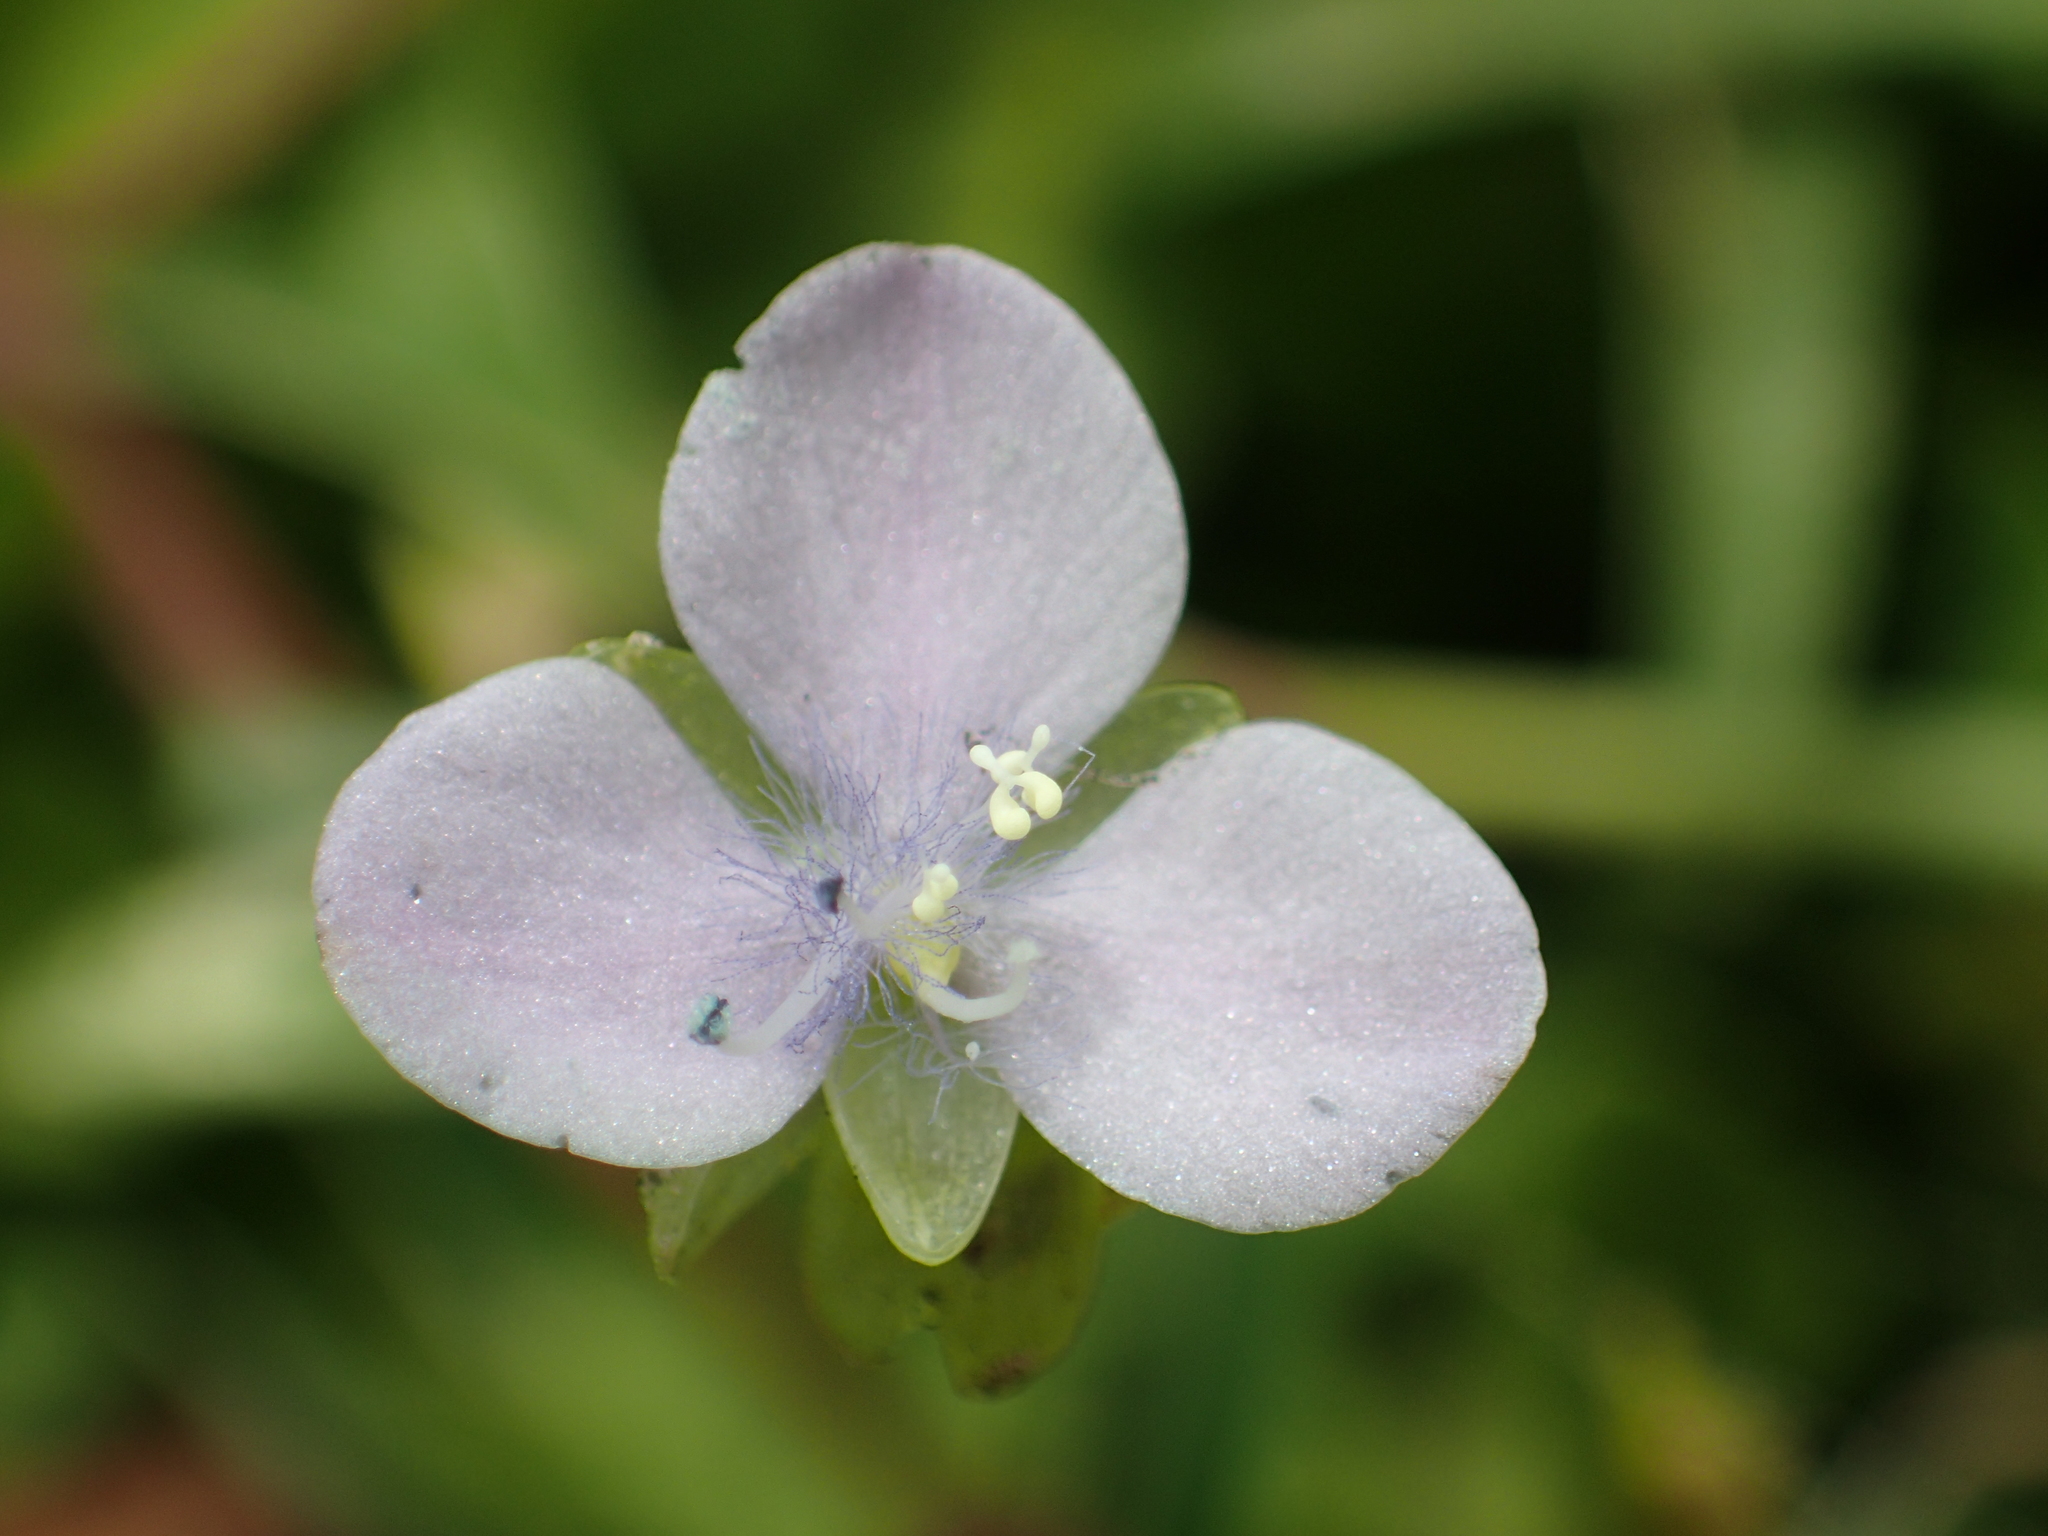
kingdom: Plantae
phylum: Tracheophyta
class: Liliopsida
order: Commelinales
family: Commelinaceae
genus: Murdannia
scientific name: Murdannia loriformis
